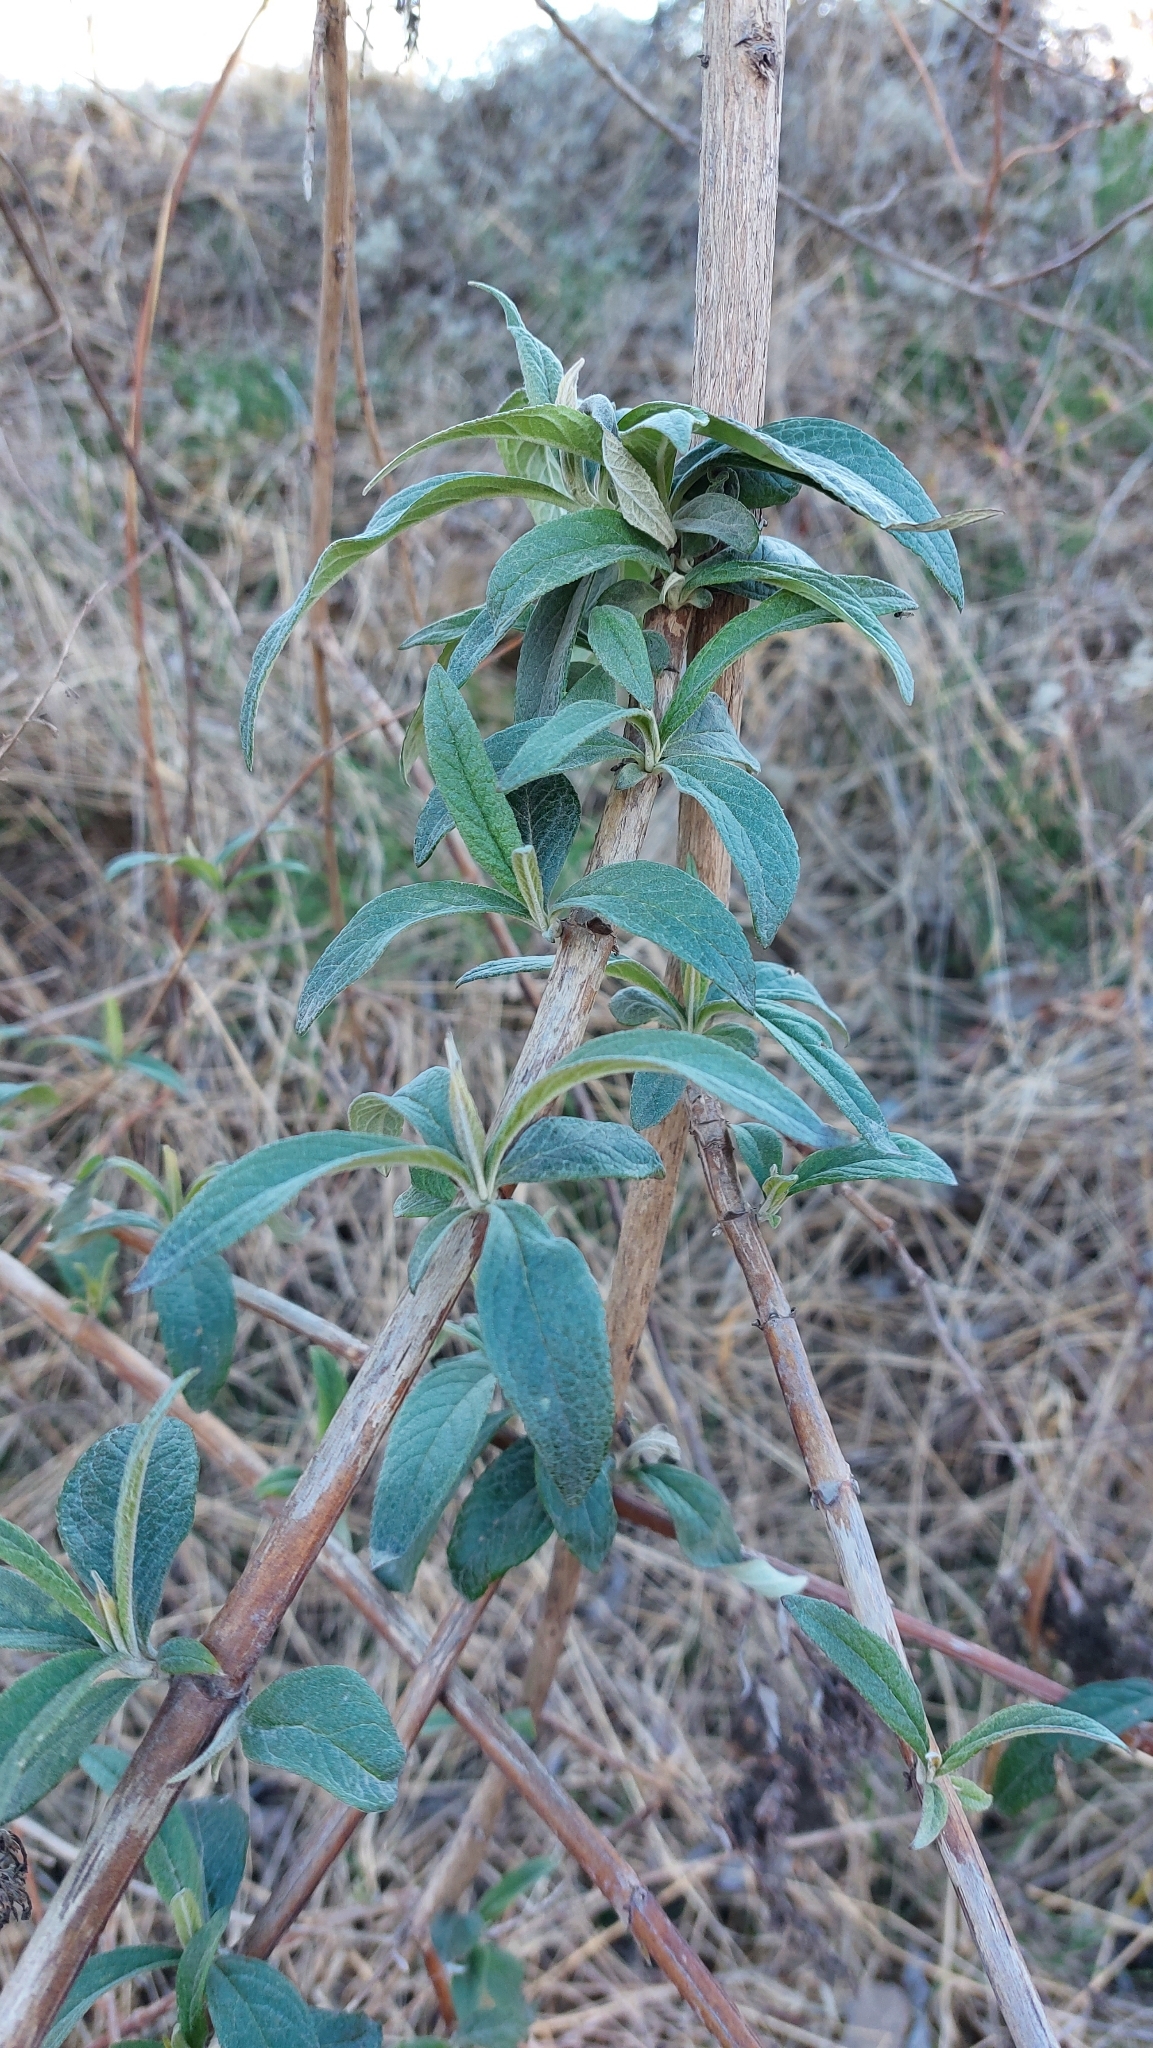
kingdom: Plantae
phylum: Tracheophyta
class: Magnoliopsida
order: Lamiales
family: Scrophulariaceae
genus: Buddleja
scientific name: Buddleja davidii
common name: Butterfly-bush
